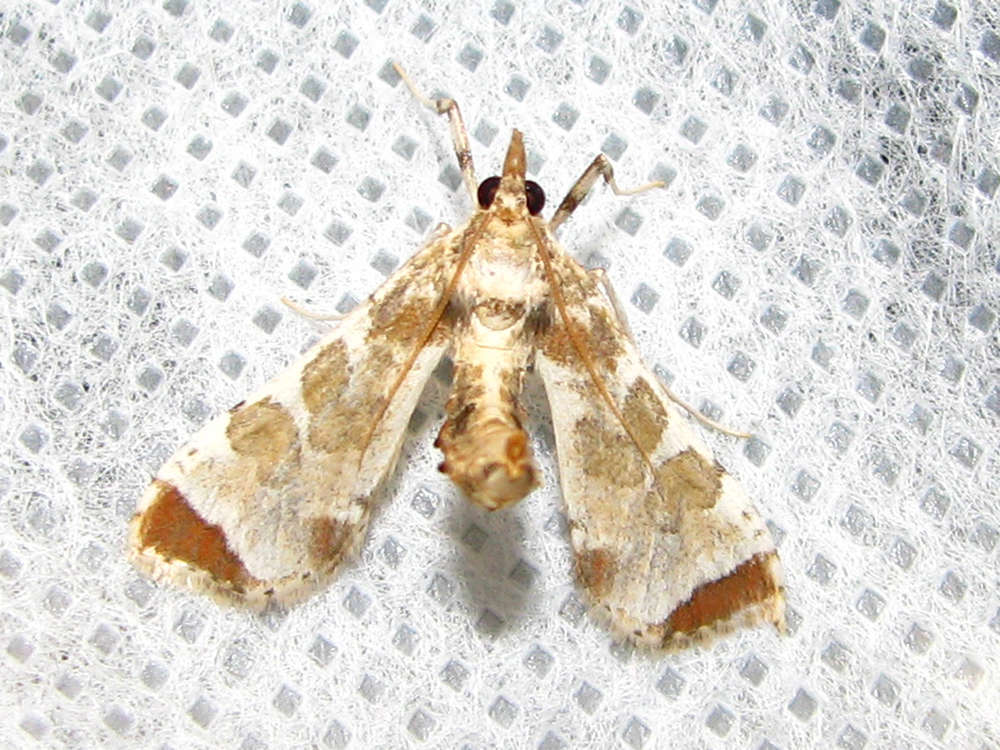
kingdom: Animalia
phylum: Arthropoda
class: Insecta
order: Lepidoptera
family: Crambidae
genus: Sceliodes
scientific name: Sceliodes cordalis
